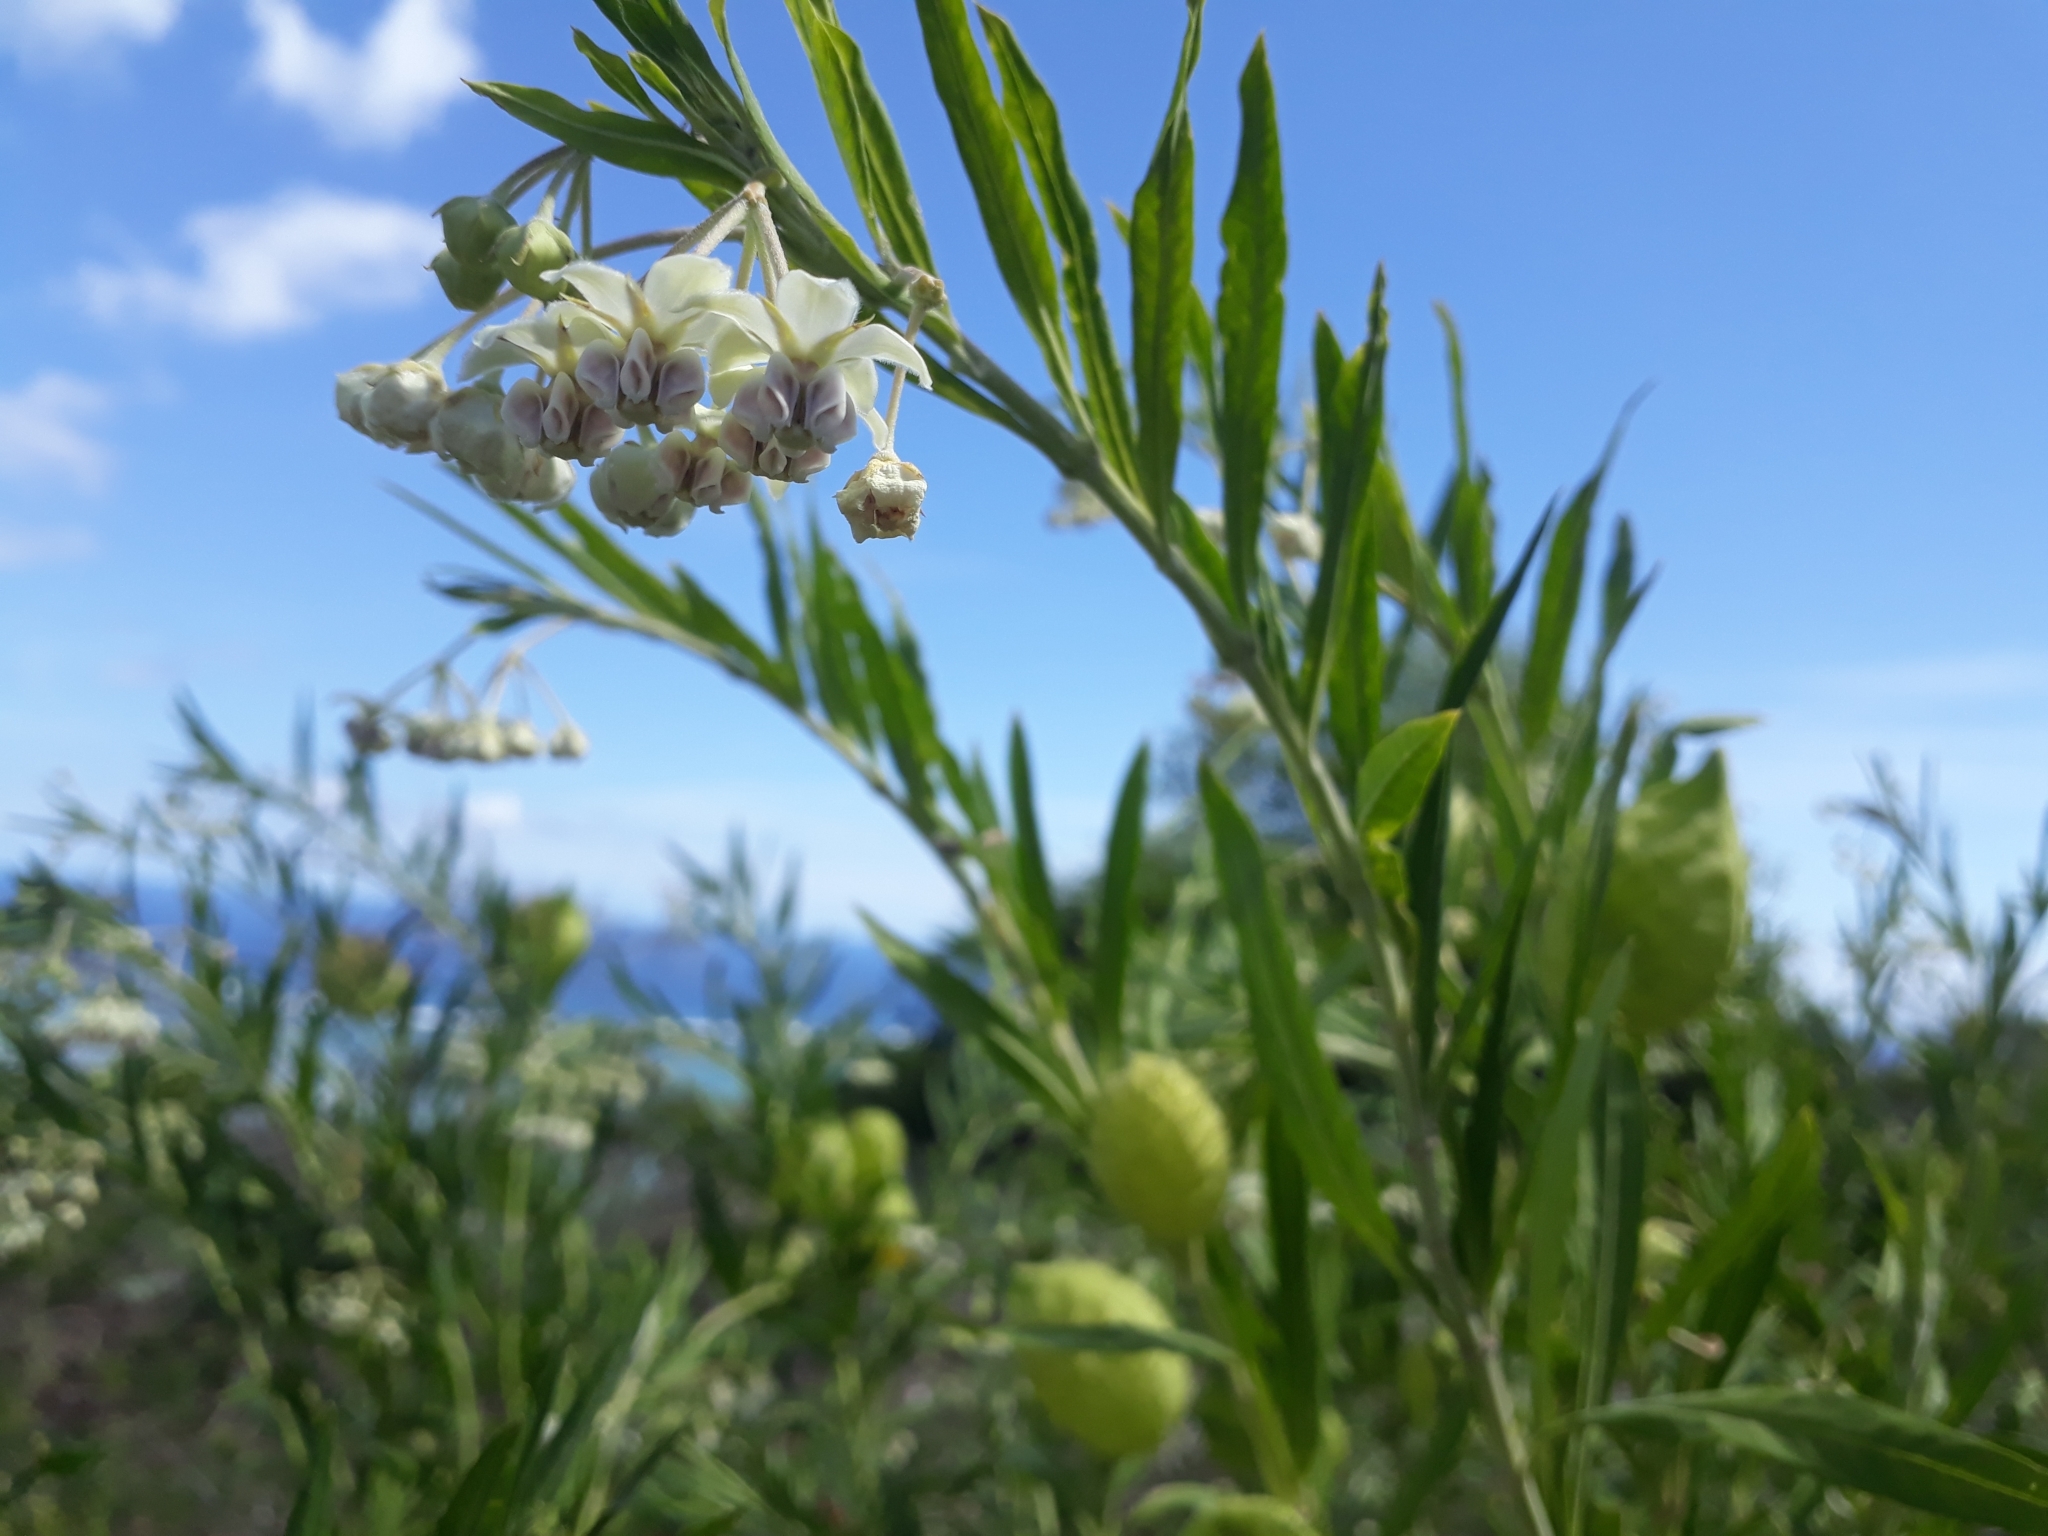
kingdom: Plantae
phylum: Tracheophyta
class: Magnoliopsida
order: Gentianales
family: Apocynaceae
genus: Gomphocarpus
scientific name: Gomphocarpus physocarpus
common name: Balloon cotton bush
